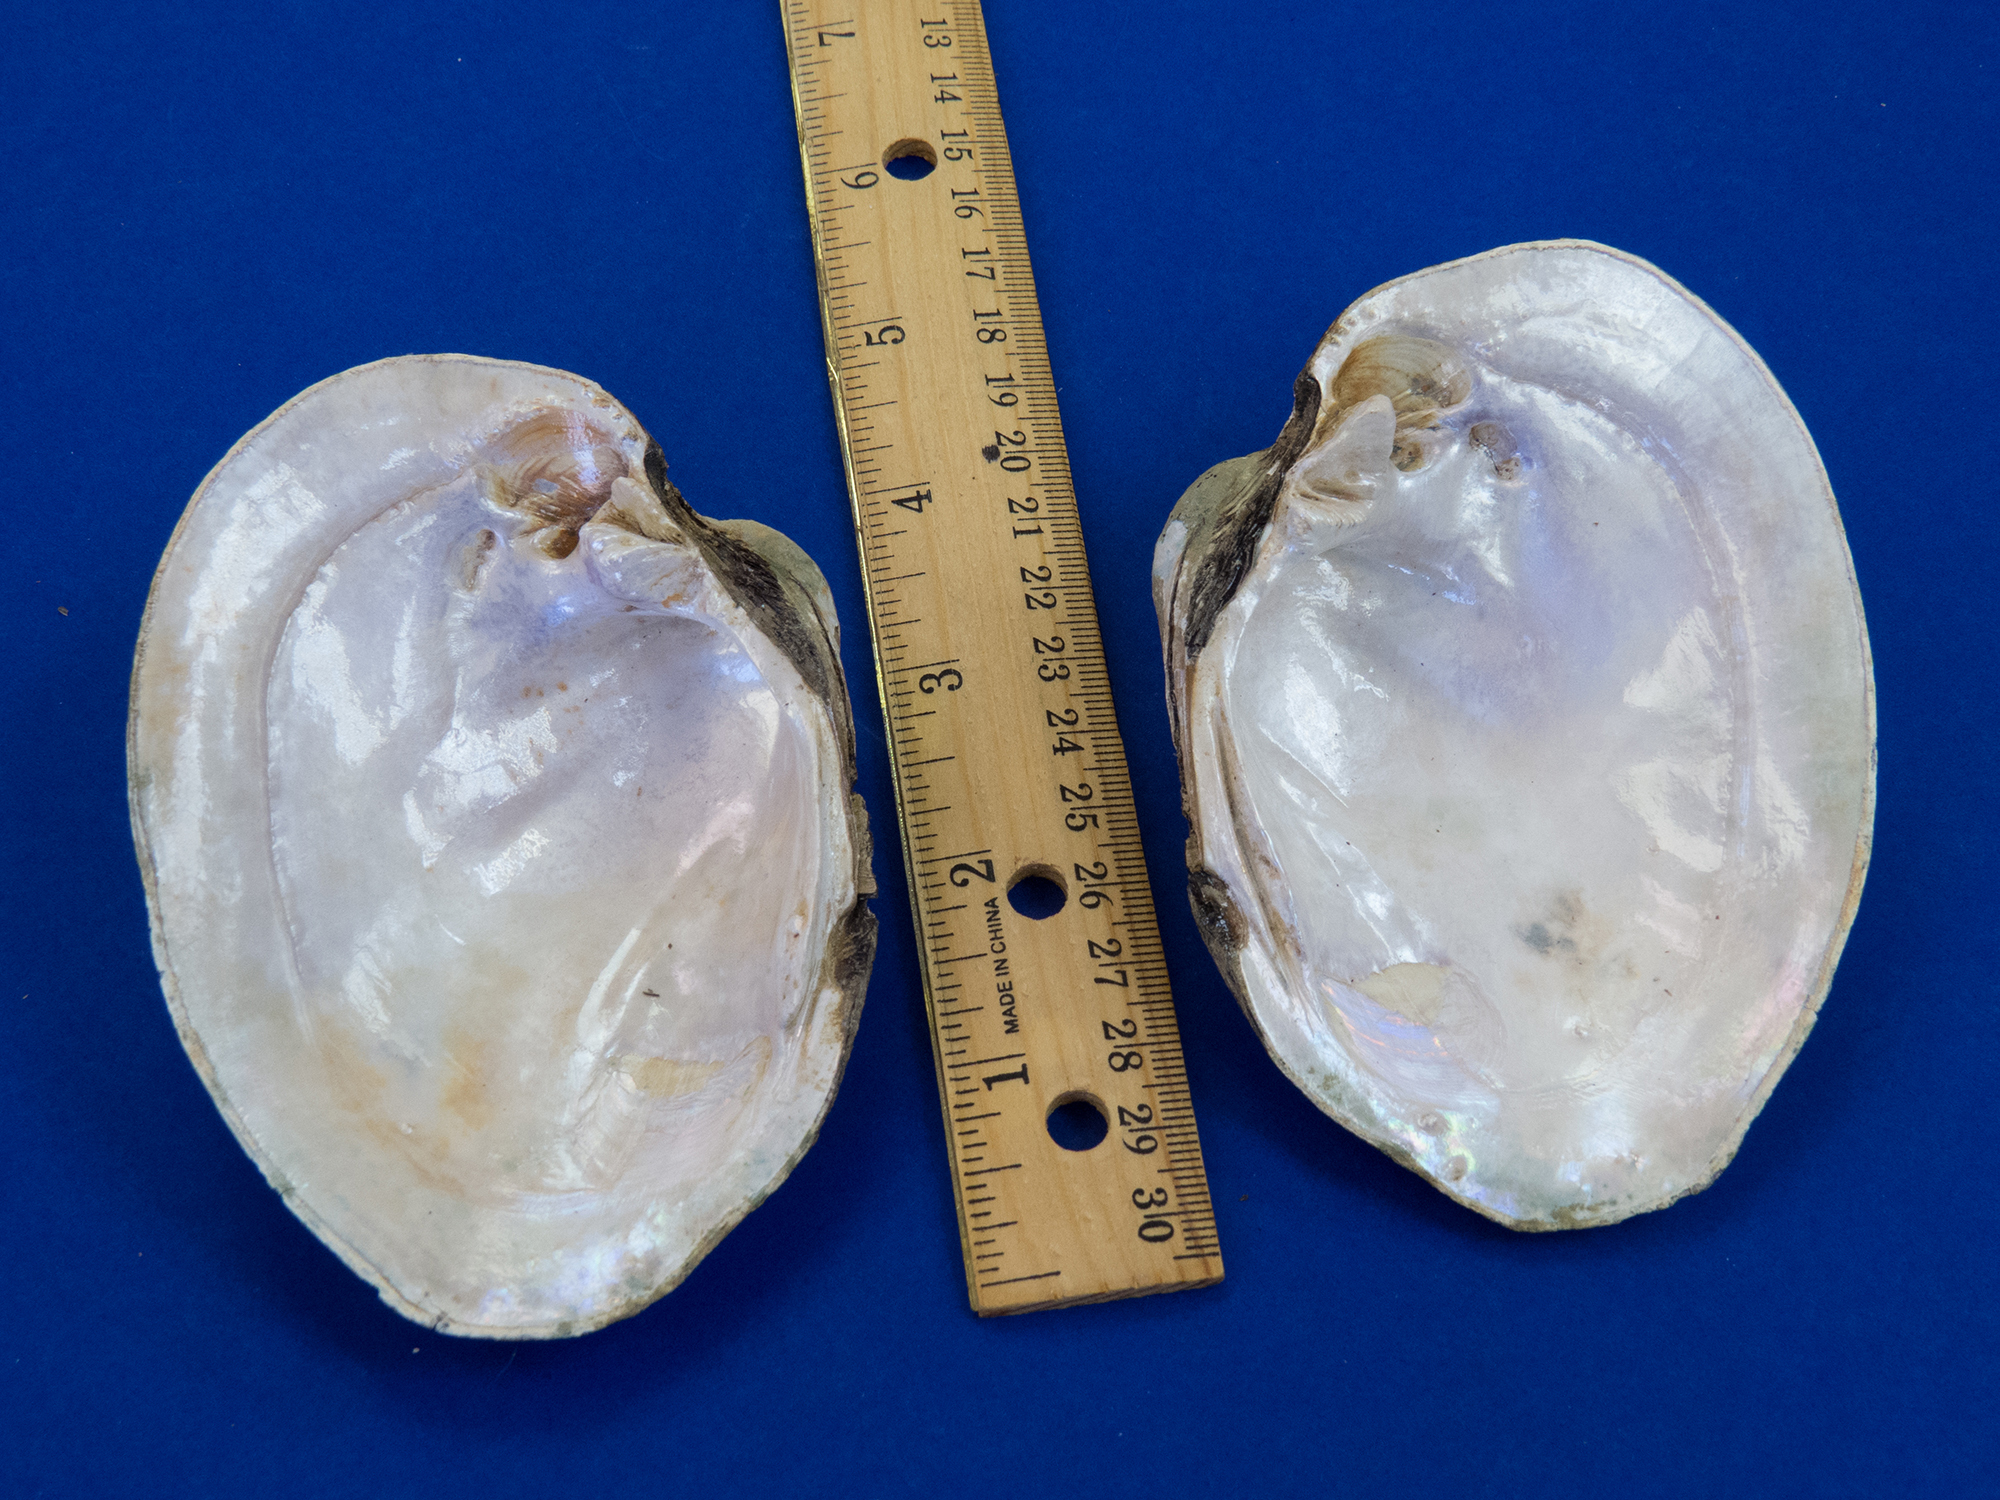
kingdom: Animalia
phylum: Mollusca
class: Bivalvia
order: Unionida
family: Unionidae
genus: Cyrtonaias
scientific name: Cyrtonaias tampicoensis
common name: Tampico pearlymussel
